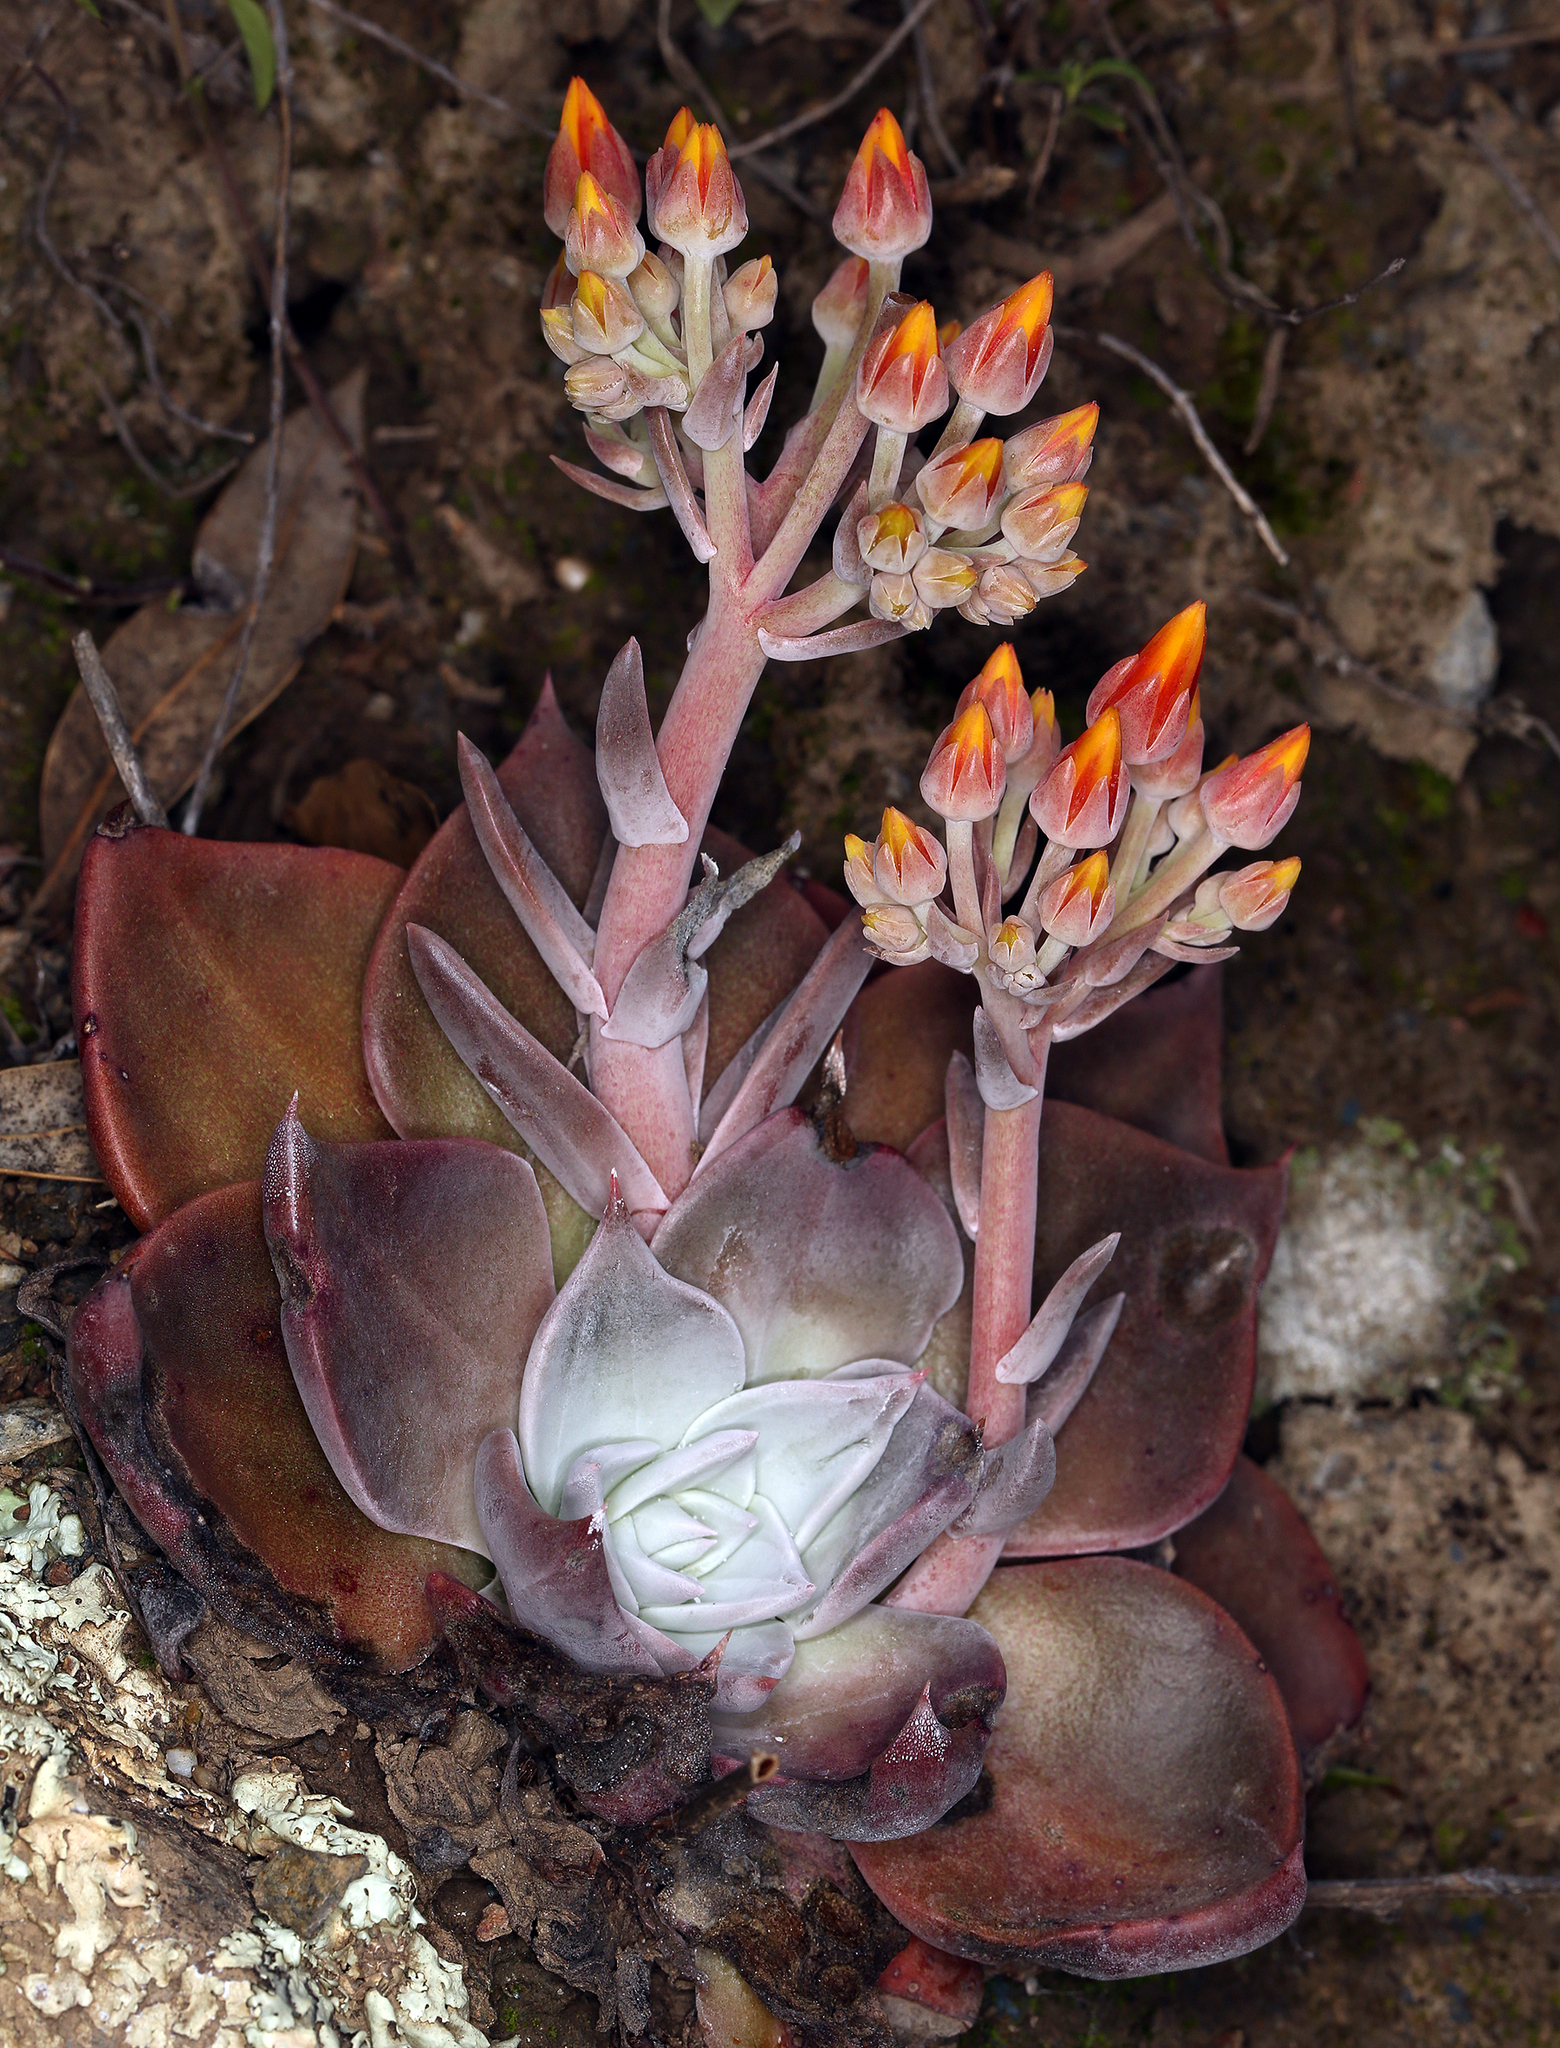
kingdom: Plantae
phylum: Tracheophyta
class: Magnoliopsida
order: Saxifragales
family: Crassulaceae
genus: Dudleya
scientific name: Dudleya cymosa
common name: Canyon dudleya
